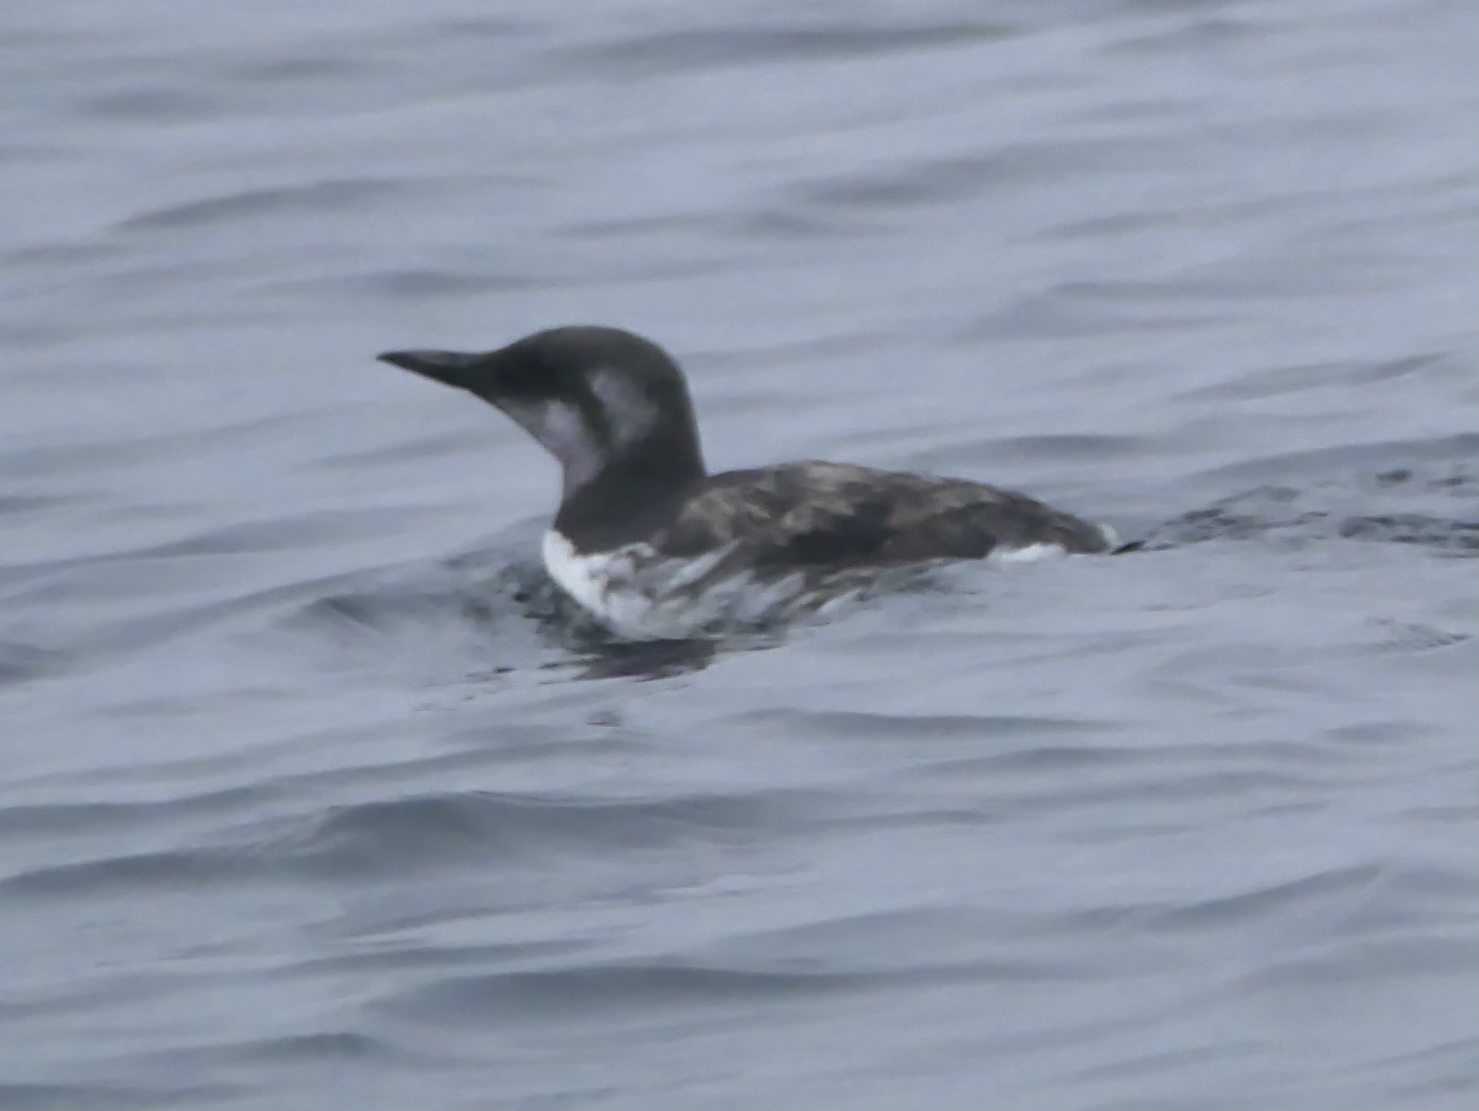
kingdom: Animalia
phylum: Chordata
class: Aves
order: Charadriiformes
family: Alcidae
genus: Uria
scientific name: Uria aalge
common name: Common murre
